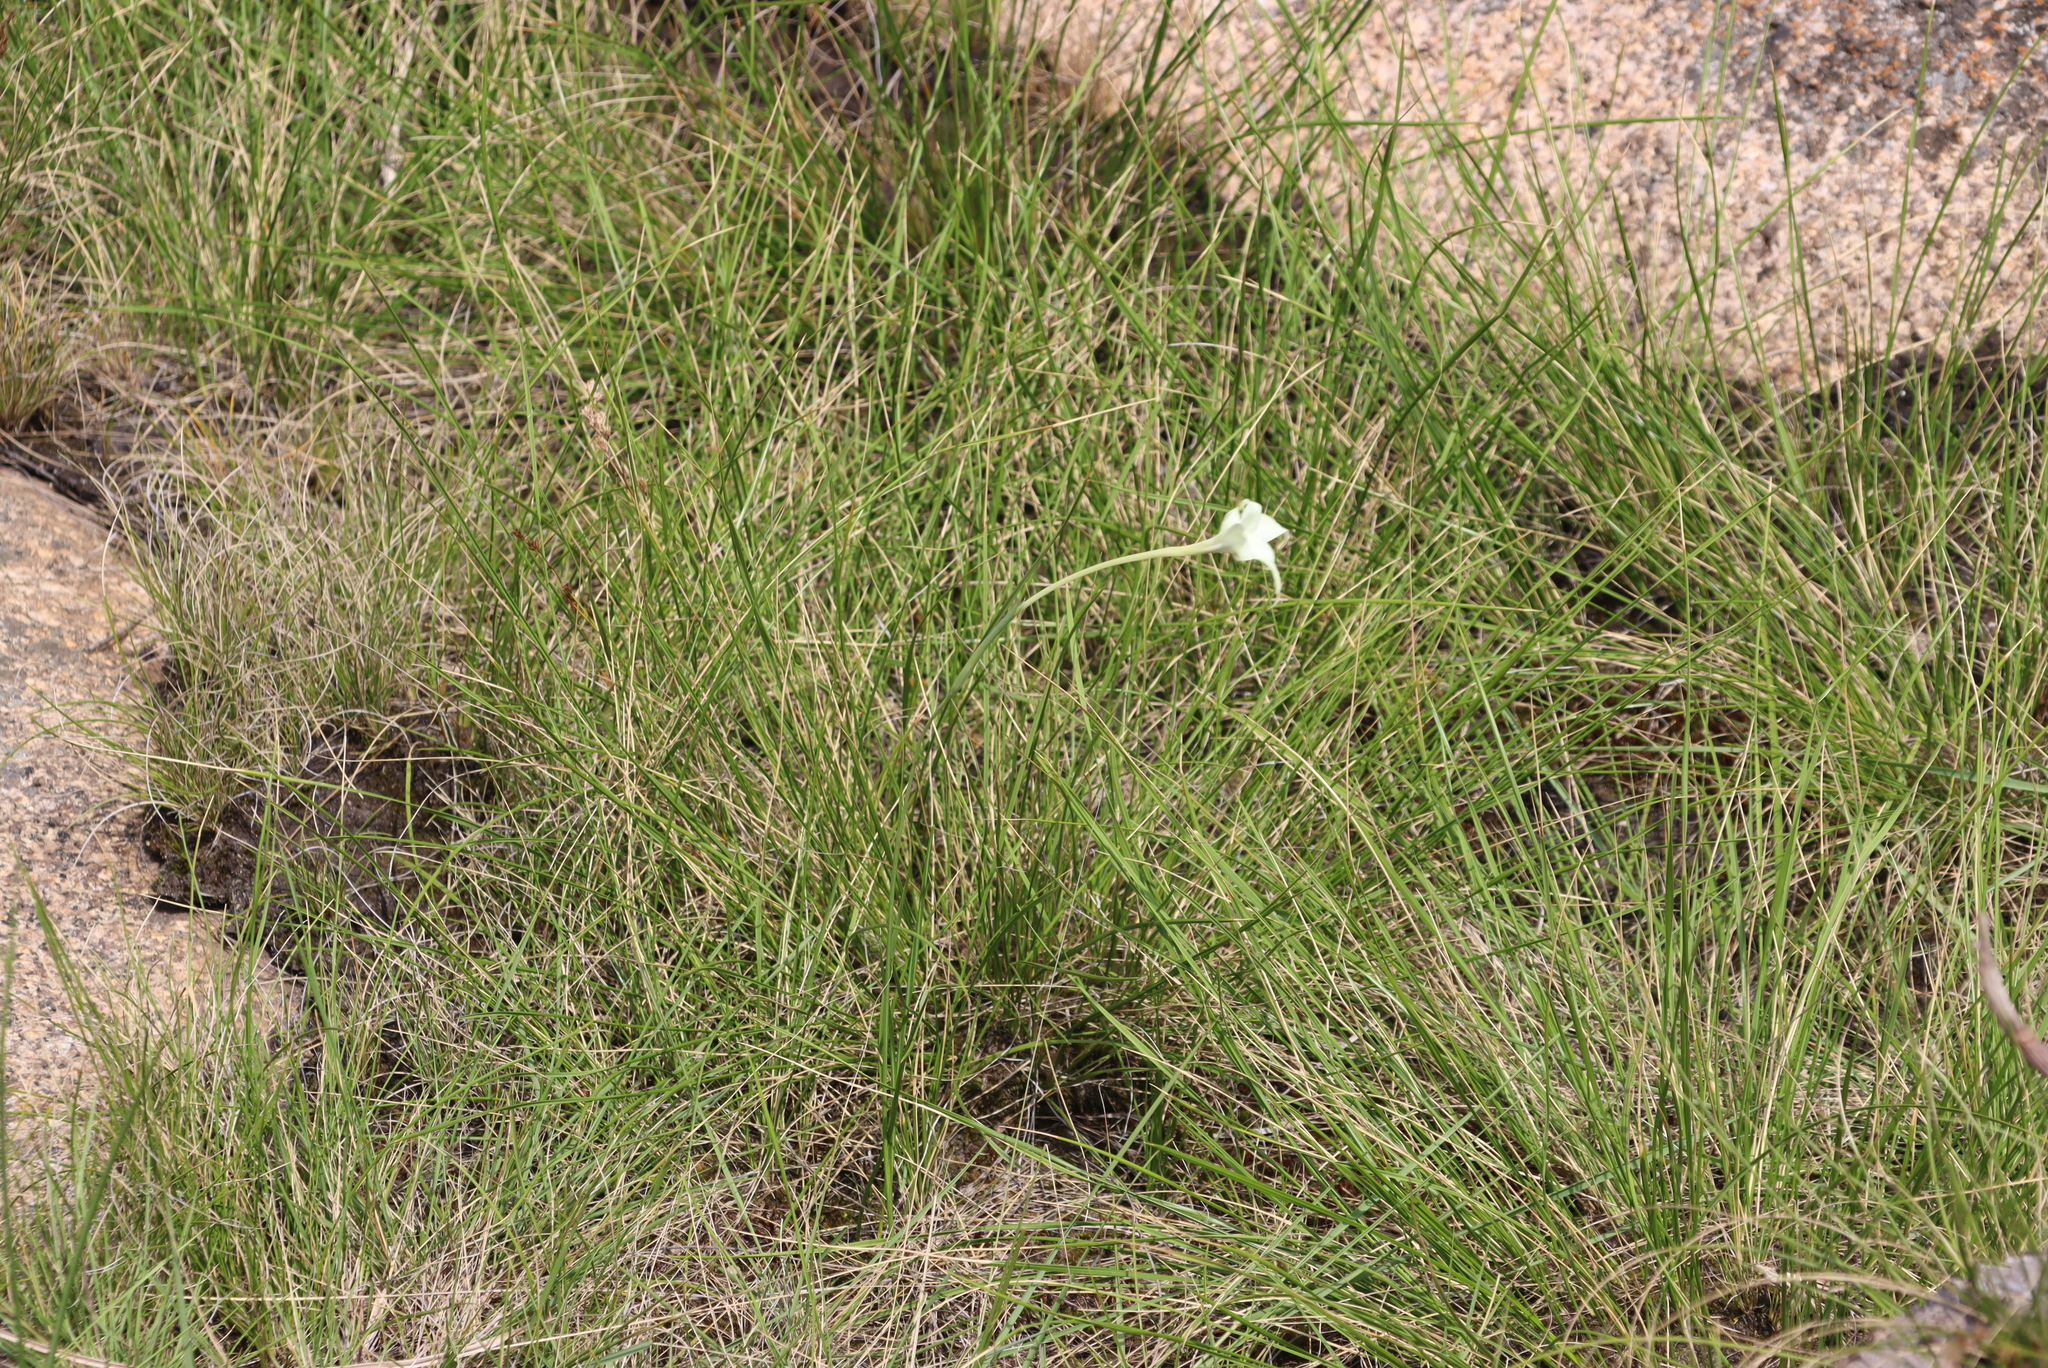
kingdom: Plantae
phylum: Tracheophyta
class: Liliopsida
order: Asparagales
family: Iridaceae
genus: Gladiolus
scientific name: Gladiolus longicollis
